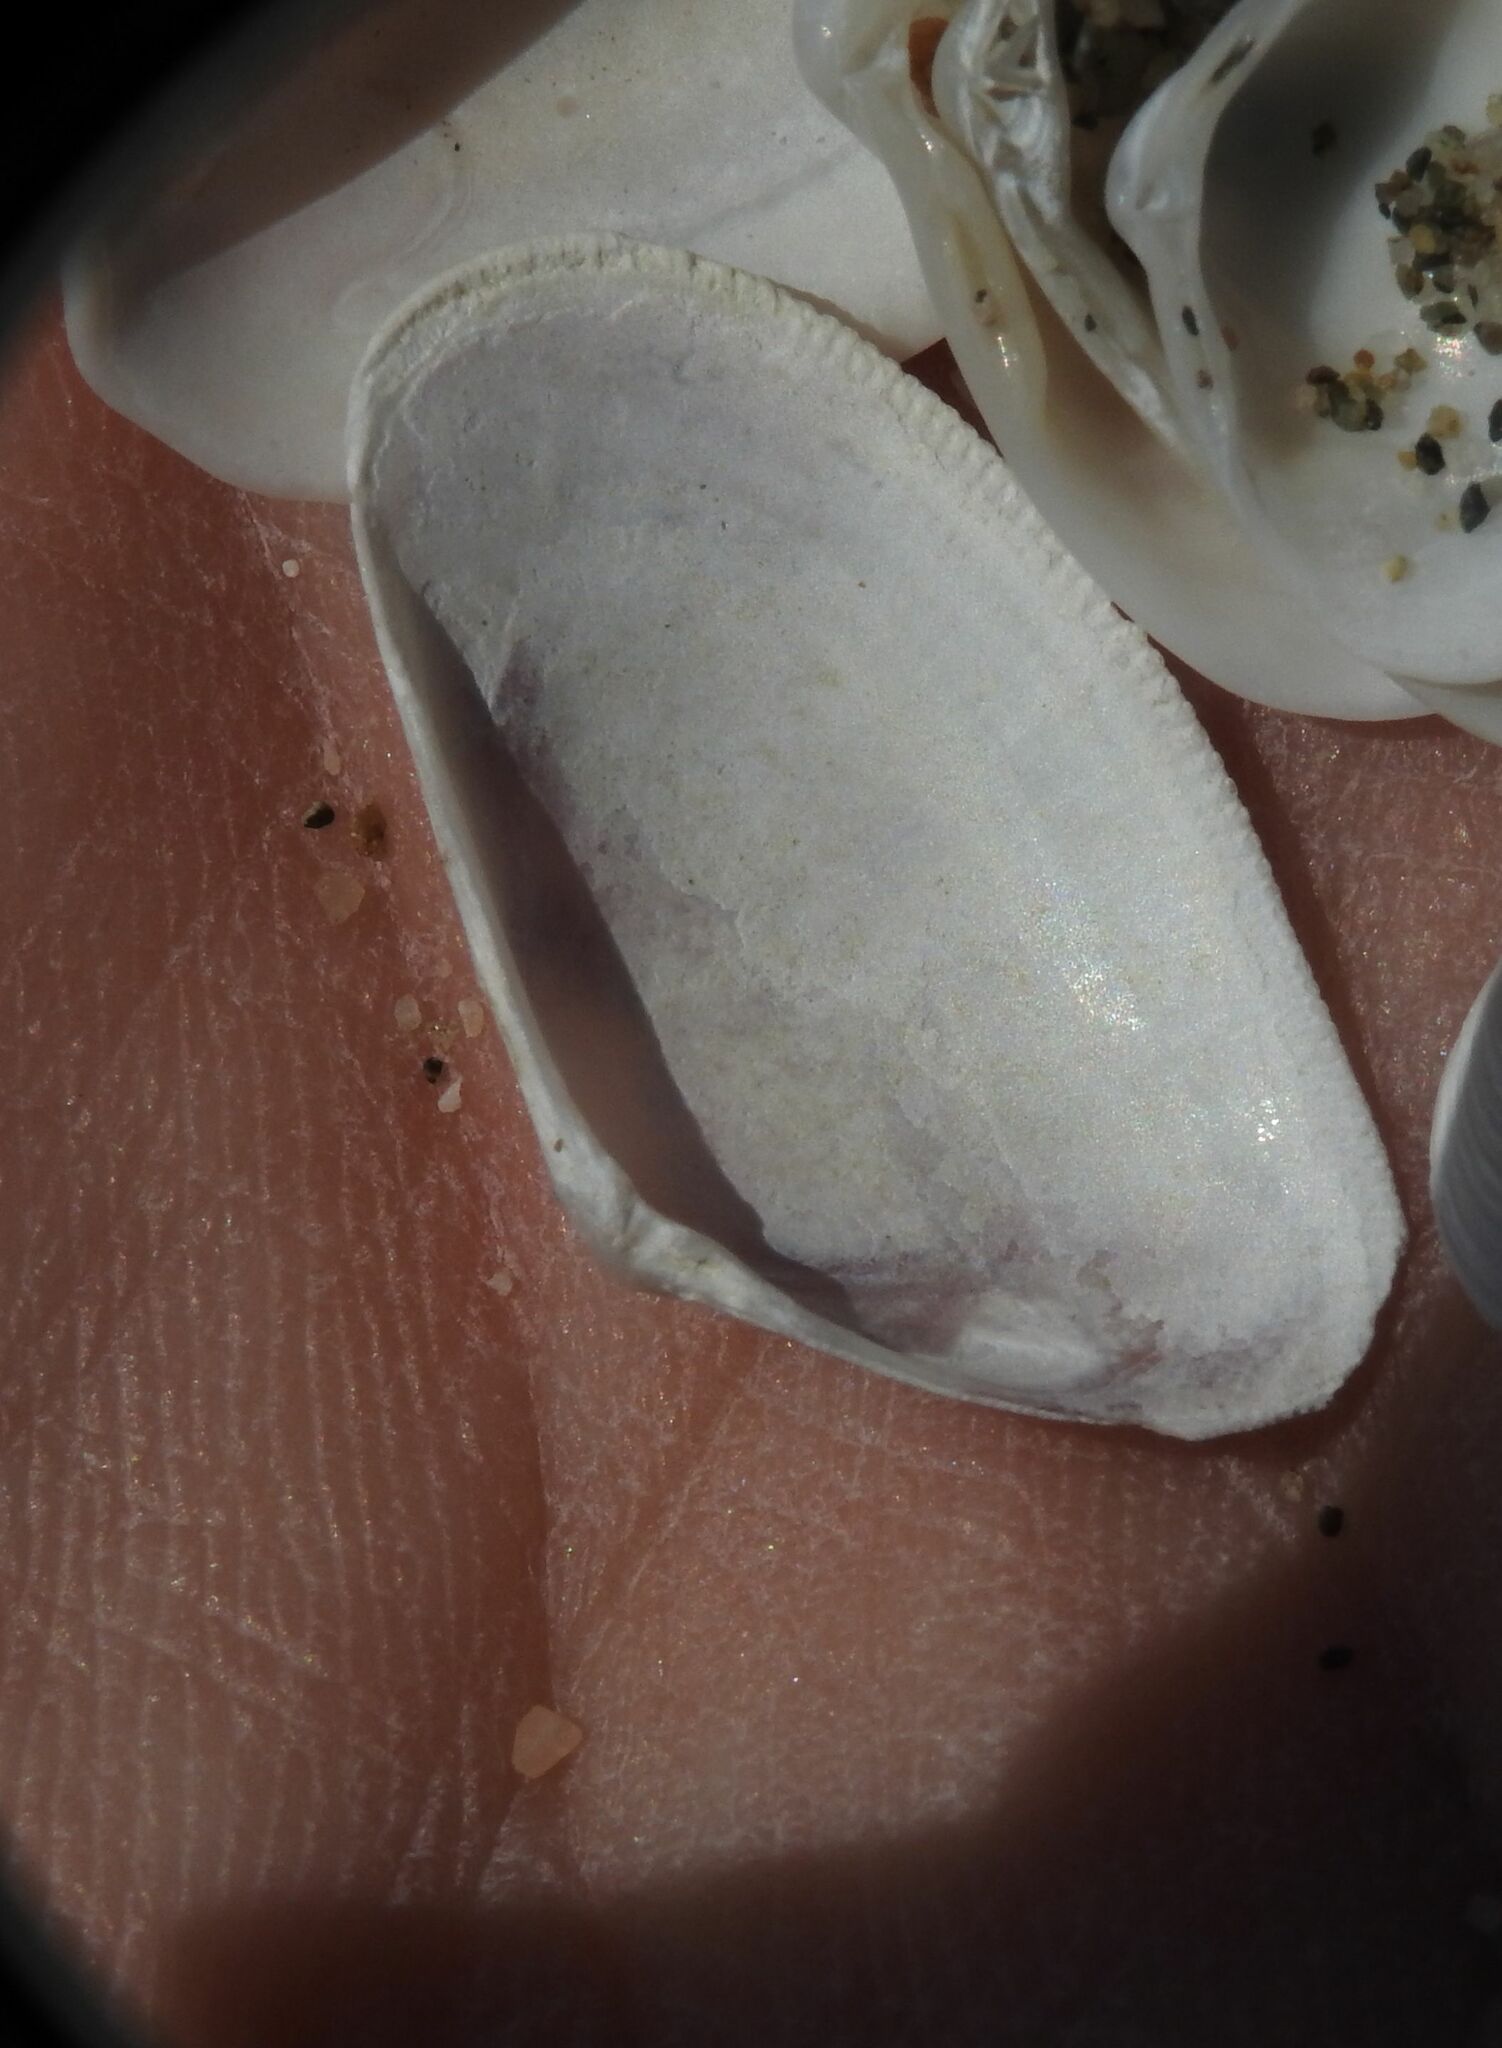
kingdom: Animalia
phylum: Mollusca
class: Bivalvia
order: Cardiida
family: Donacidae
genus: Donax
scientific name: Donax semistriatus
